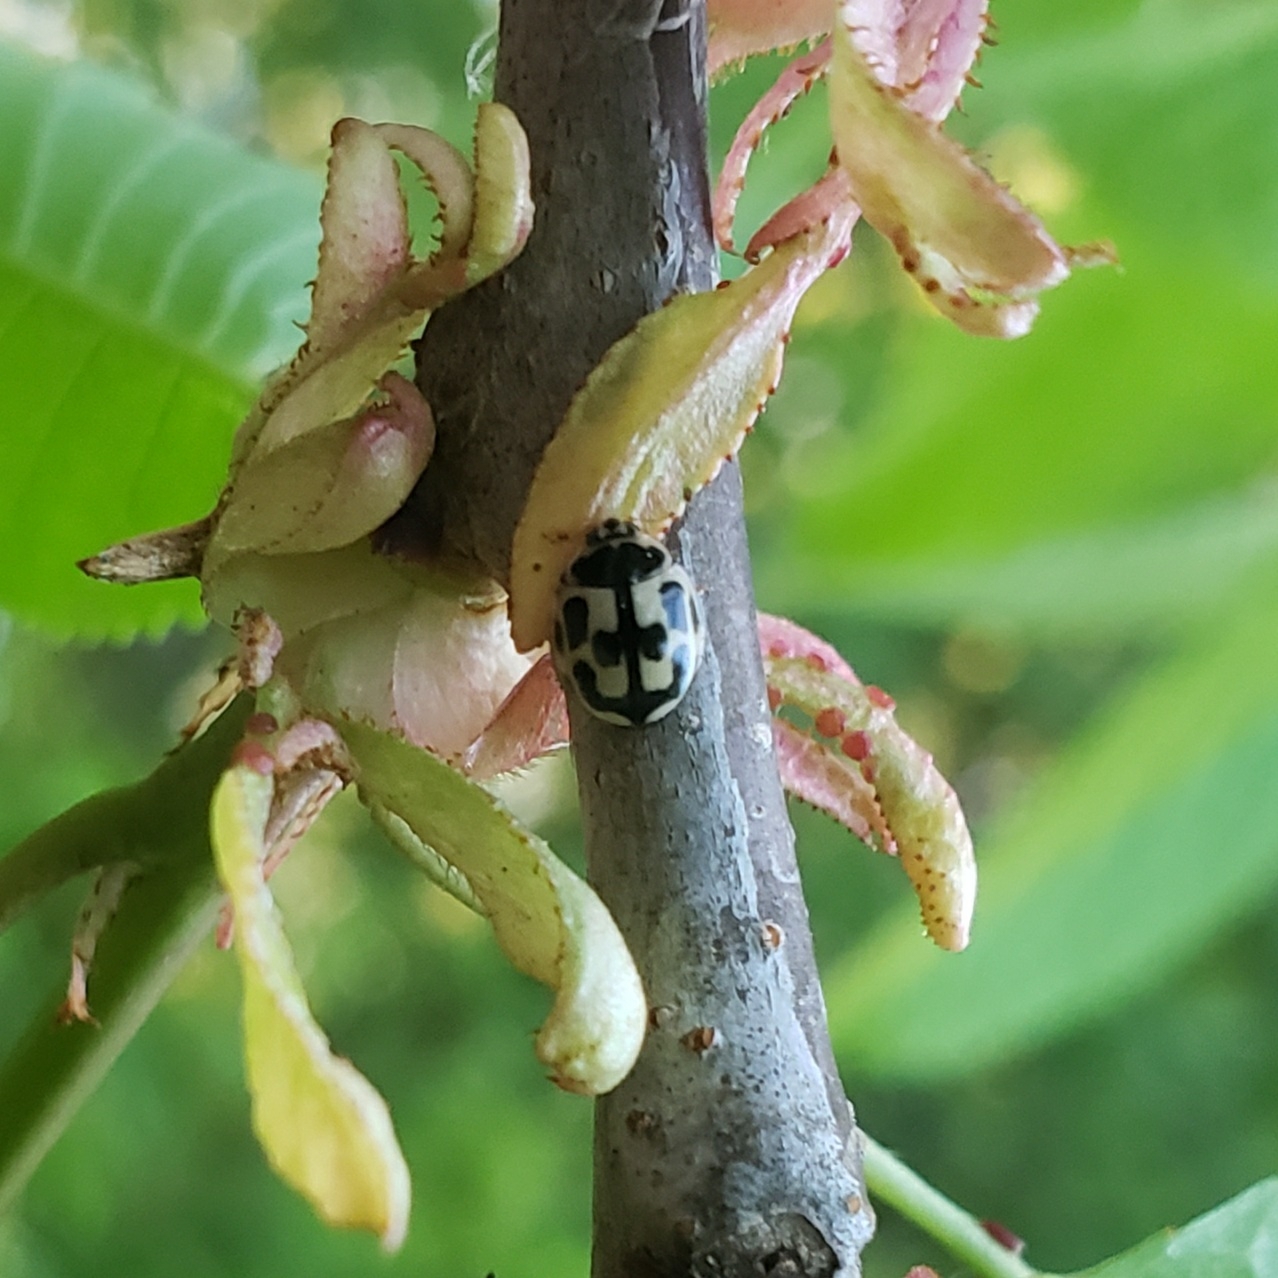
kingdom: Animalia
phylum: Arthropoda
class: Insecta
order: Coleoptera
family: Coccinellidae
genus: Propylaea
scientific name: Propylaea quatuordecimpunctata
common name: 14-spotted ladybird beetle
